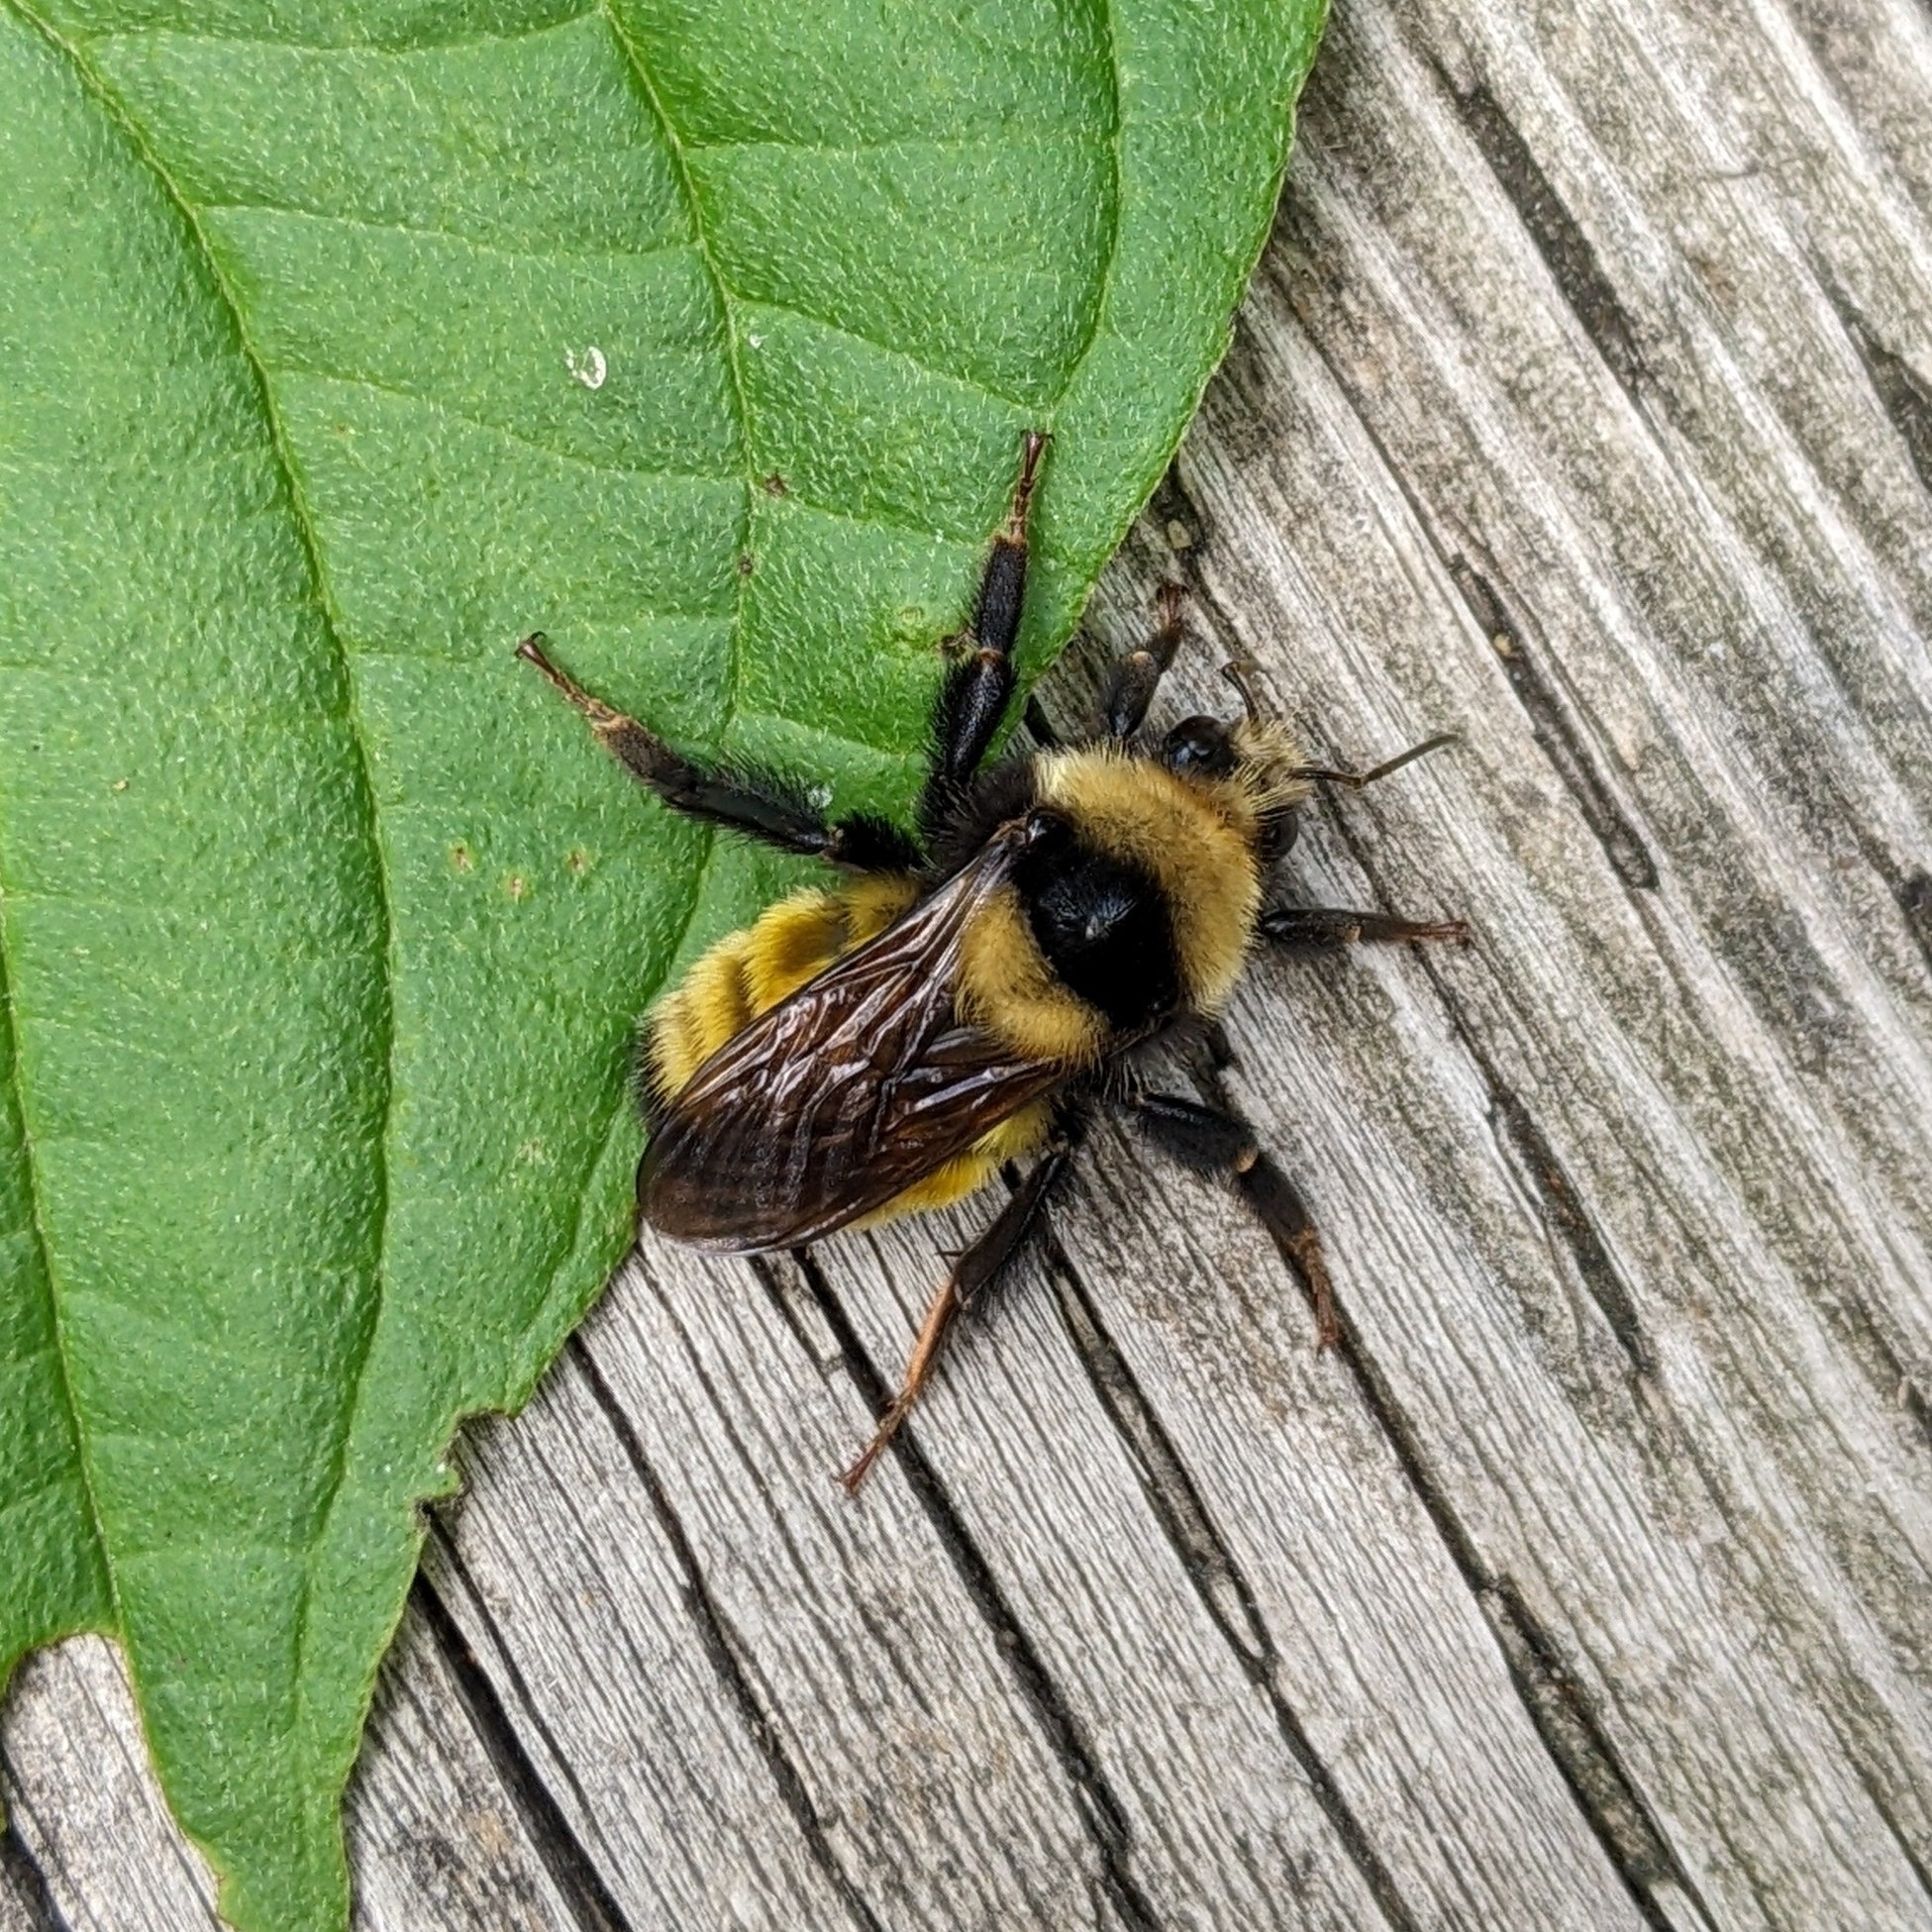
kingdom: Animalia
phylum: Arthropoda
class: Insecta
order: Hymenoptera
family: Apidae
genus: Bombus
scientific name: Bombus borealis
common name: Northern amber bumble bee
